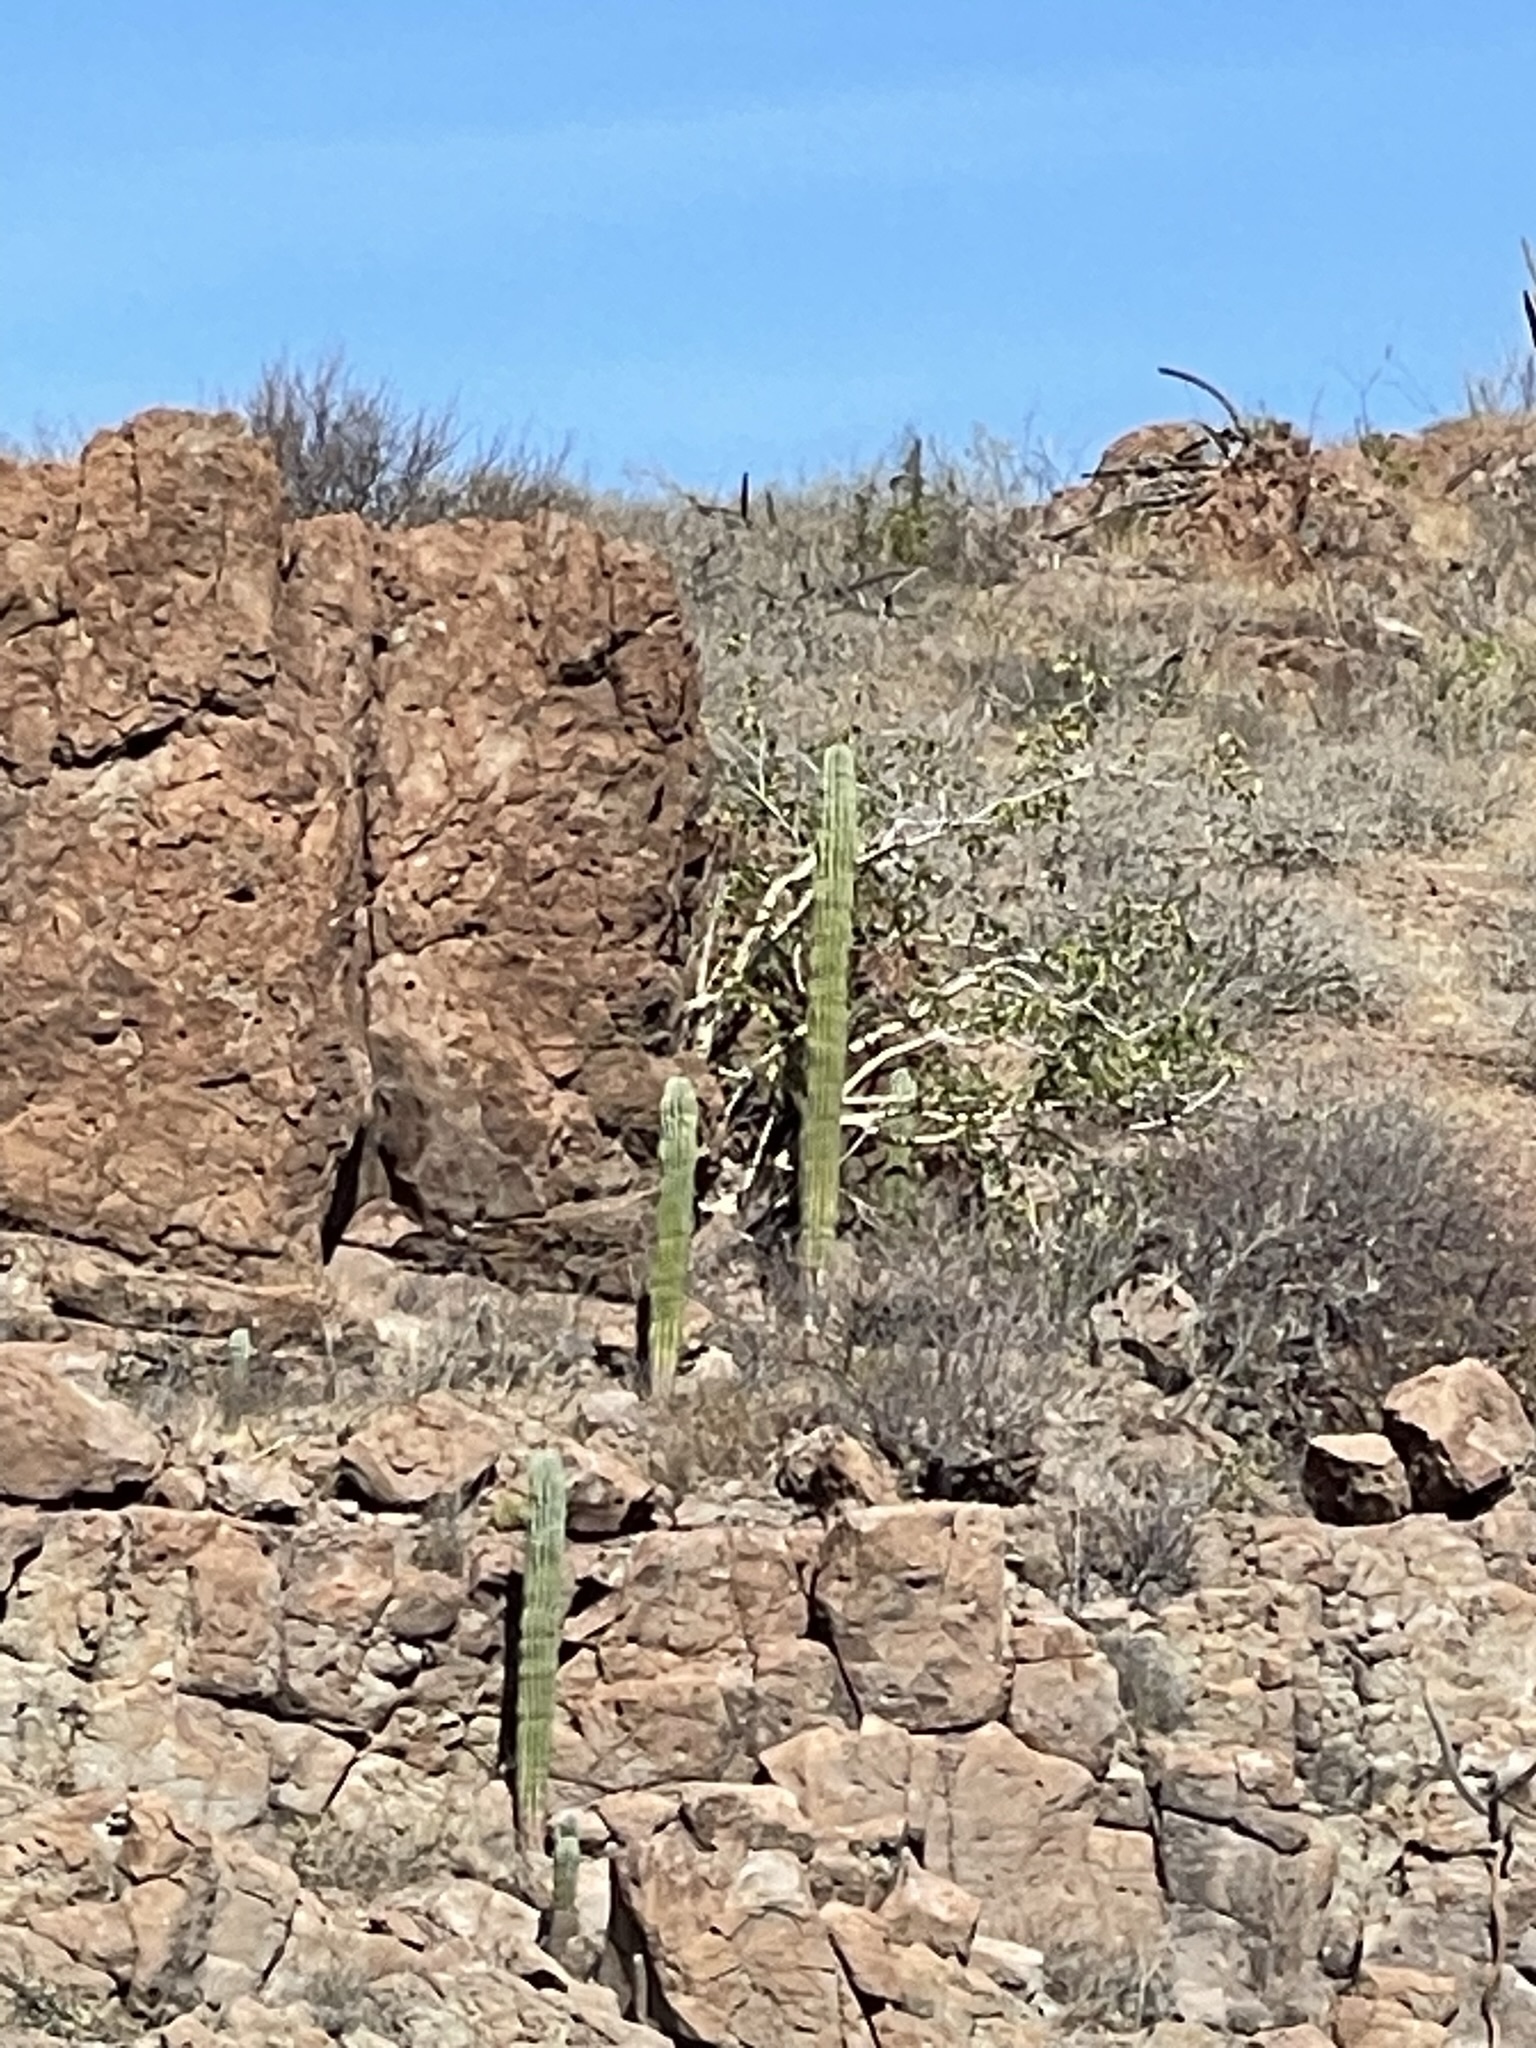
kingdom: Plantae
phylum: Tracheophyta
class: Magnoliopsida
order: Caryophyllales
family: Cactaceae
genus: Pachycereus
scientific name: Pachycereus pringlei
